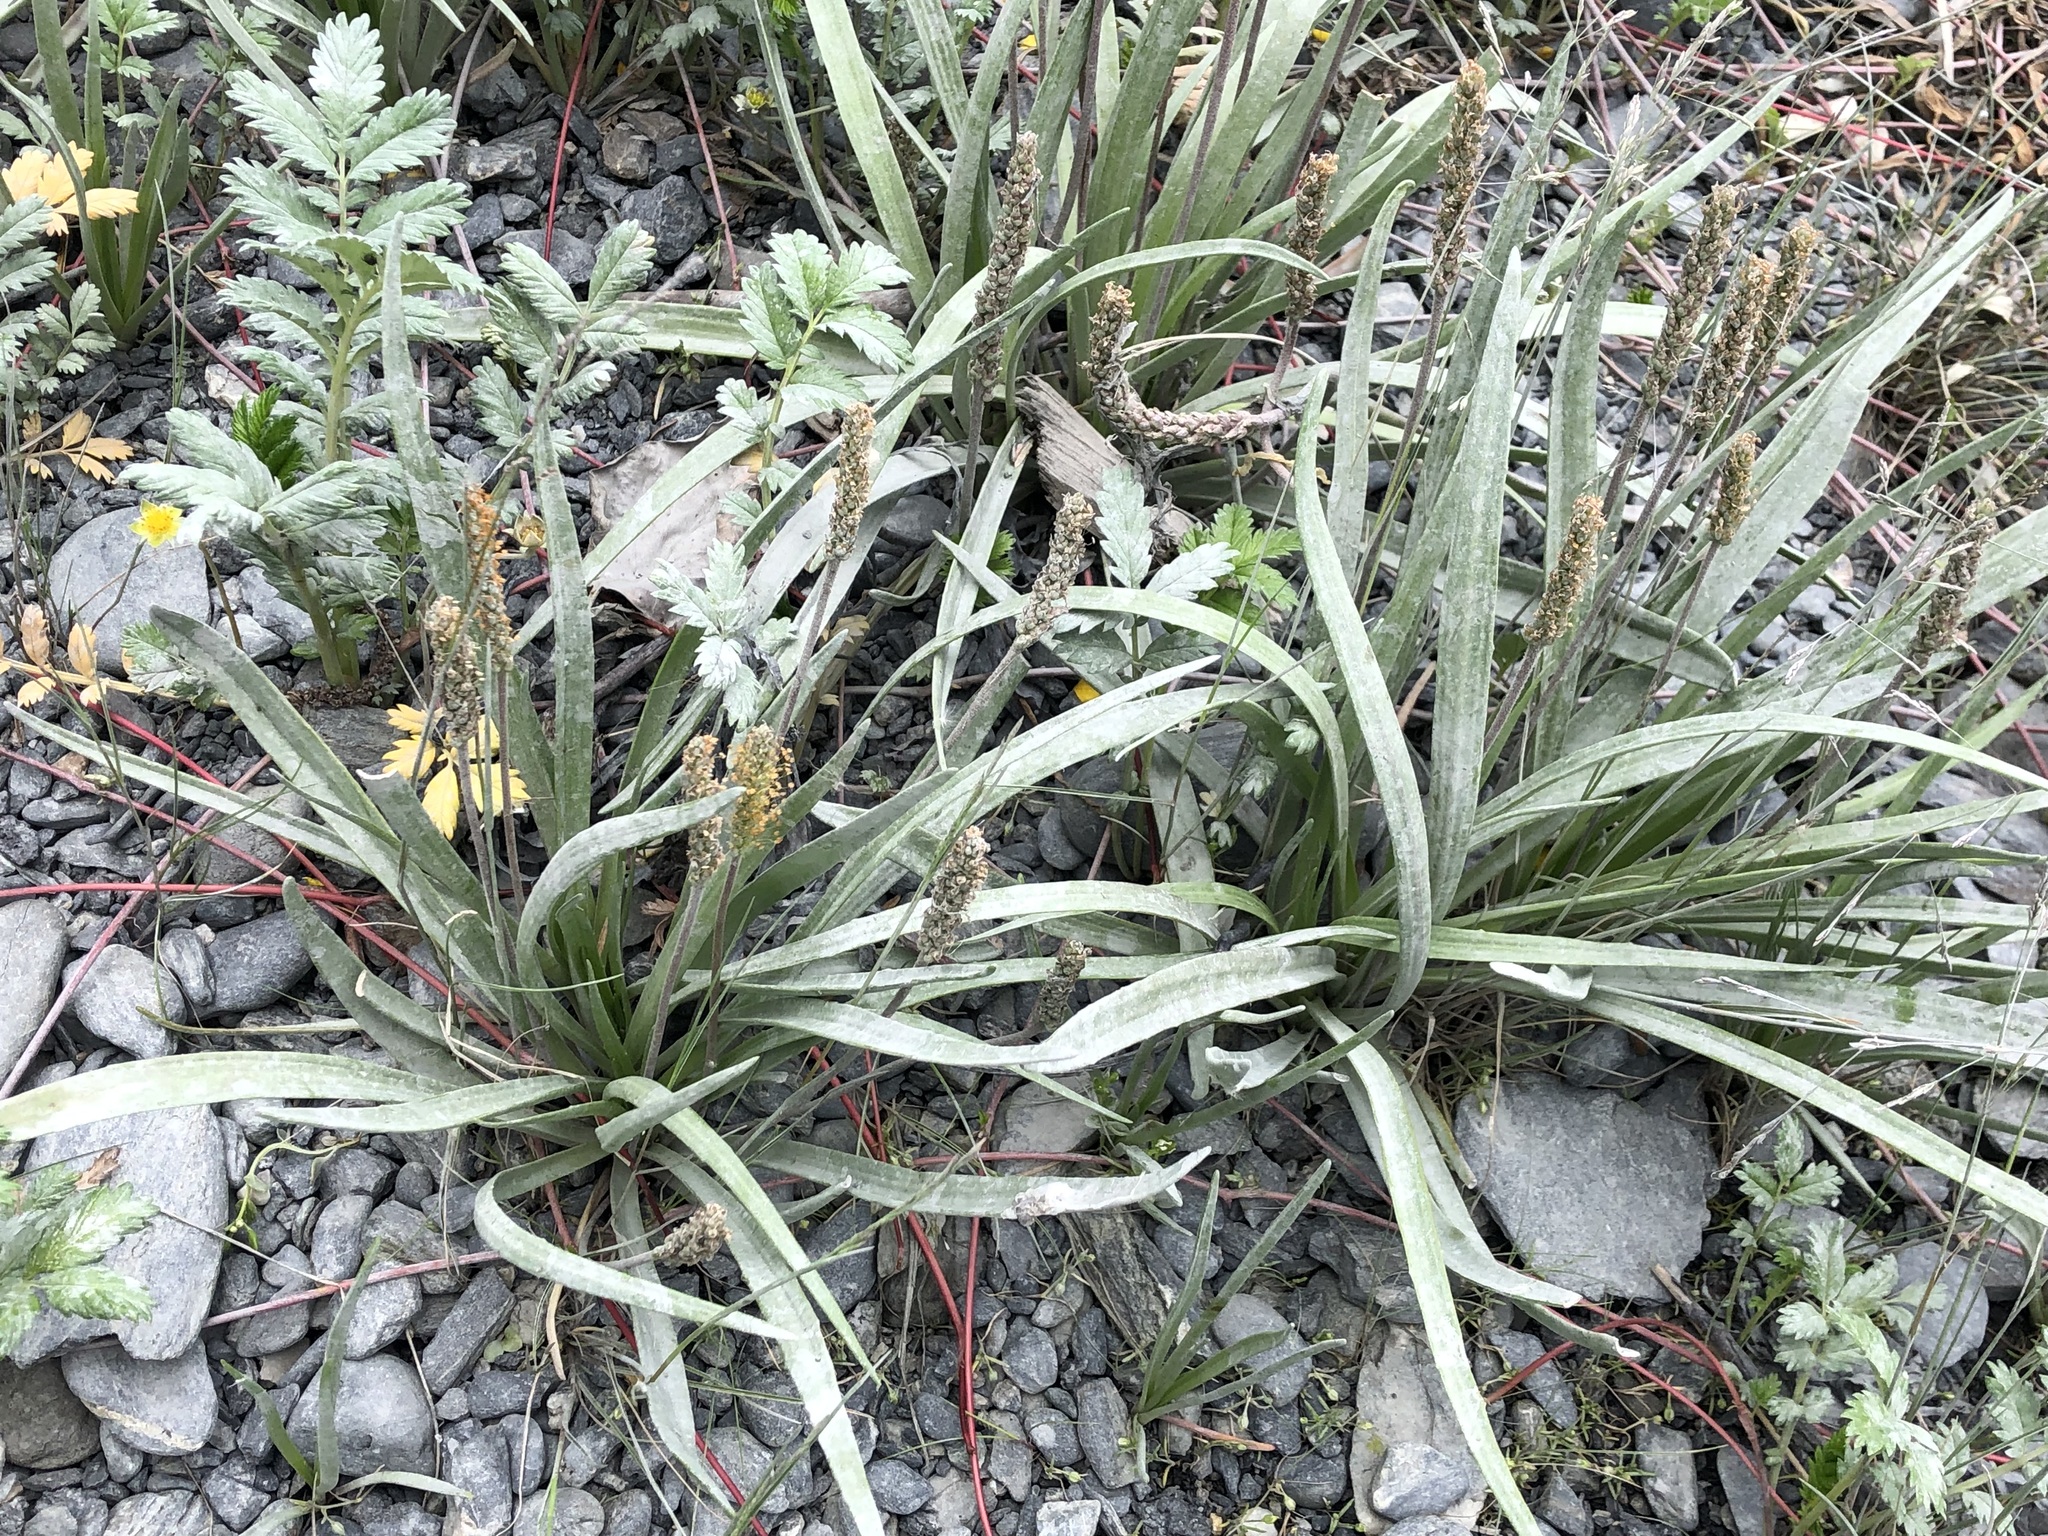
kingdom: Plantae
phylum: Tracheophyta
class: Magnoliopsida
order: Lamiales
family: Plantaginaceae
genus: Plantago
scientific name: Plantago maritima
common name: Sea plantain
